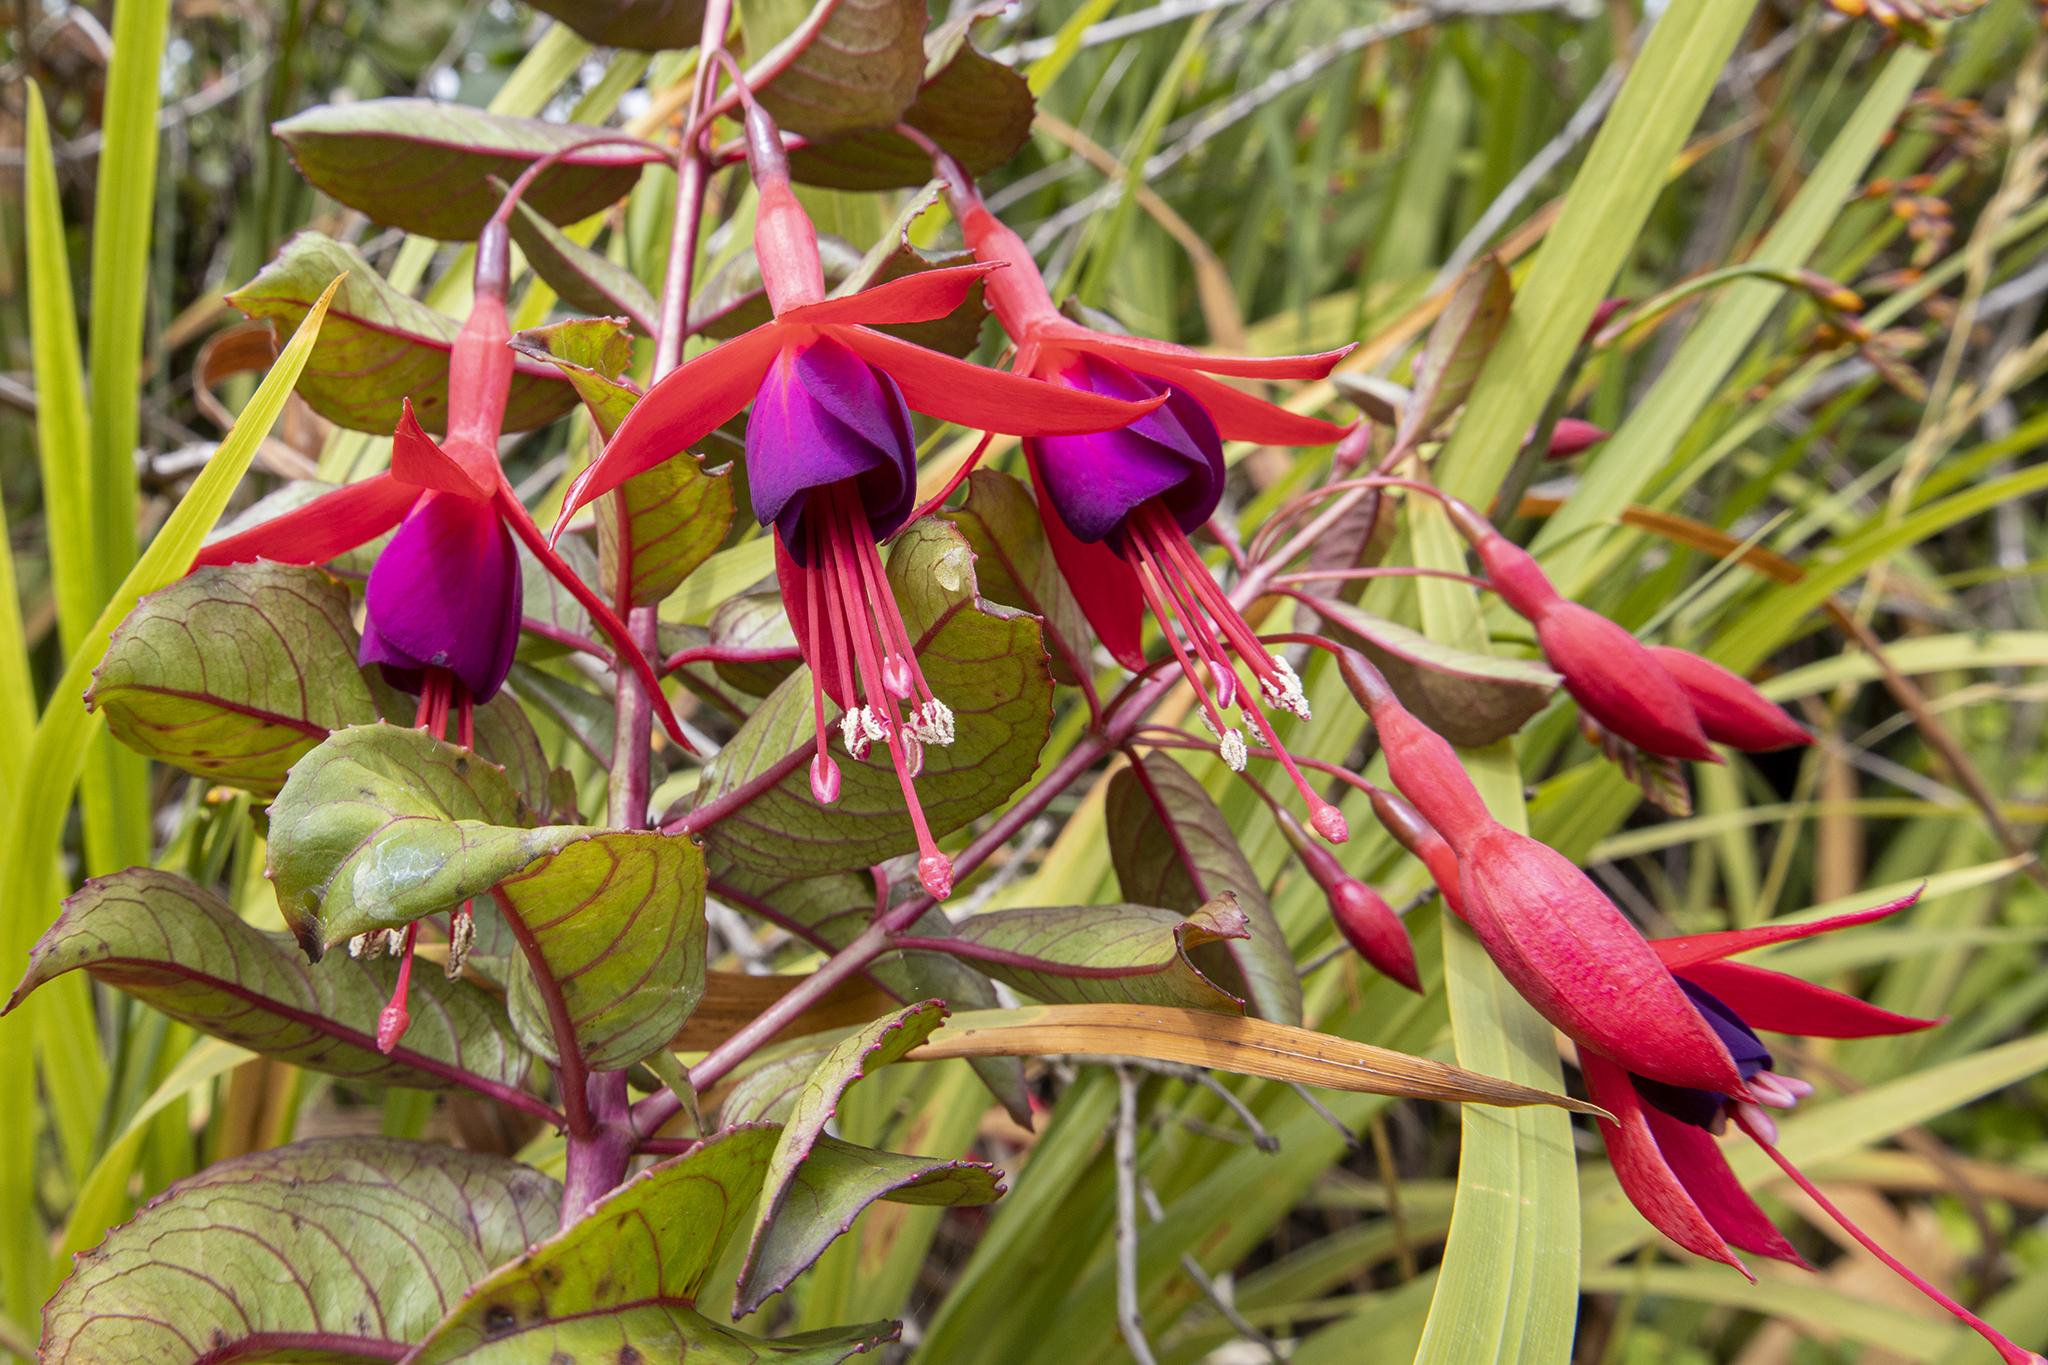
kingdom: Plantae
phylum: Tracheophyta
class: Magnoliopsida
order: Myrtales
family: Onagraceae
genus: Fuchsia
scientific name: Fuchsia magellanica
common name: Hardy fuchsia
